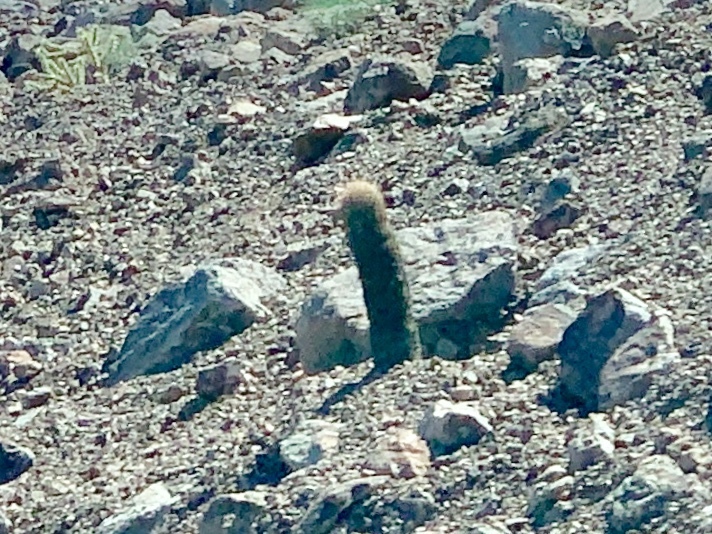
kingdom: Plantae
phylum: Tracheophyta
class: Magnoliopsida
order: Caryophyllales
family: Cactaceae
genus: Ferocactus
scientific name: Ferocactus cylindraceus
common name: California barrel cactus
